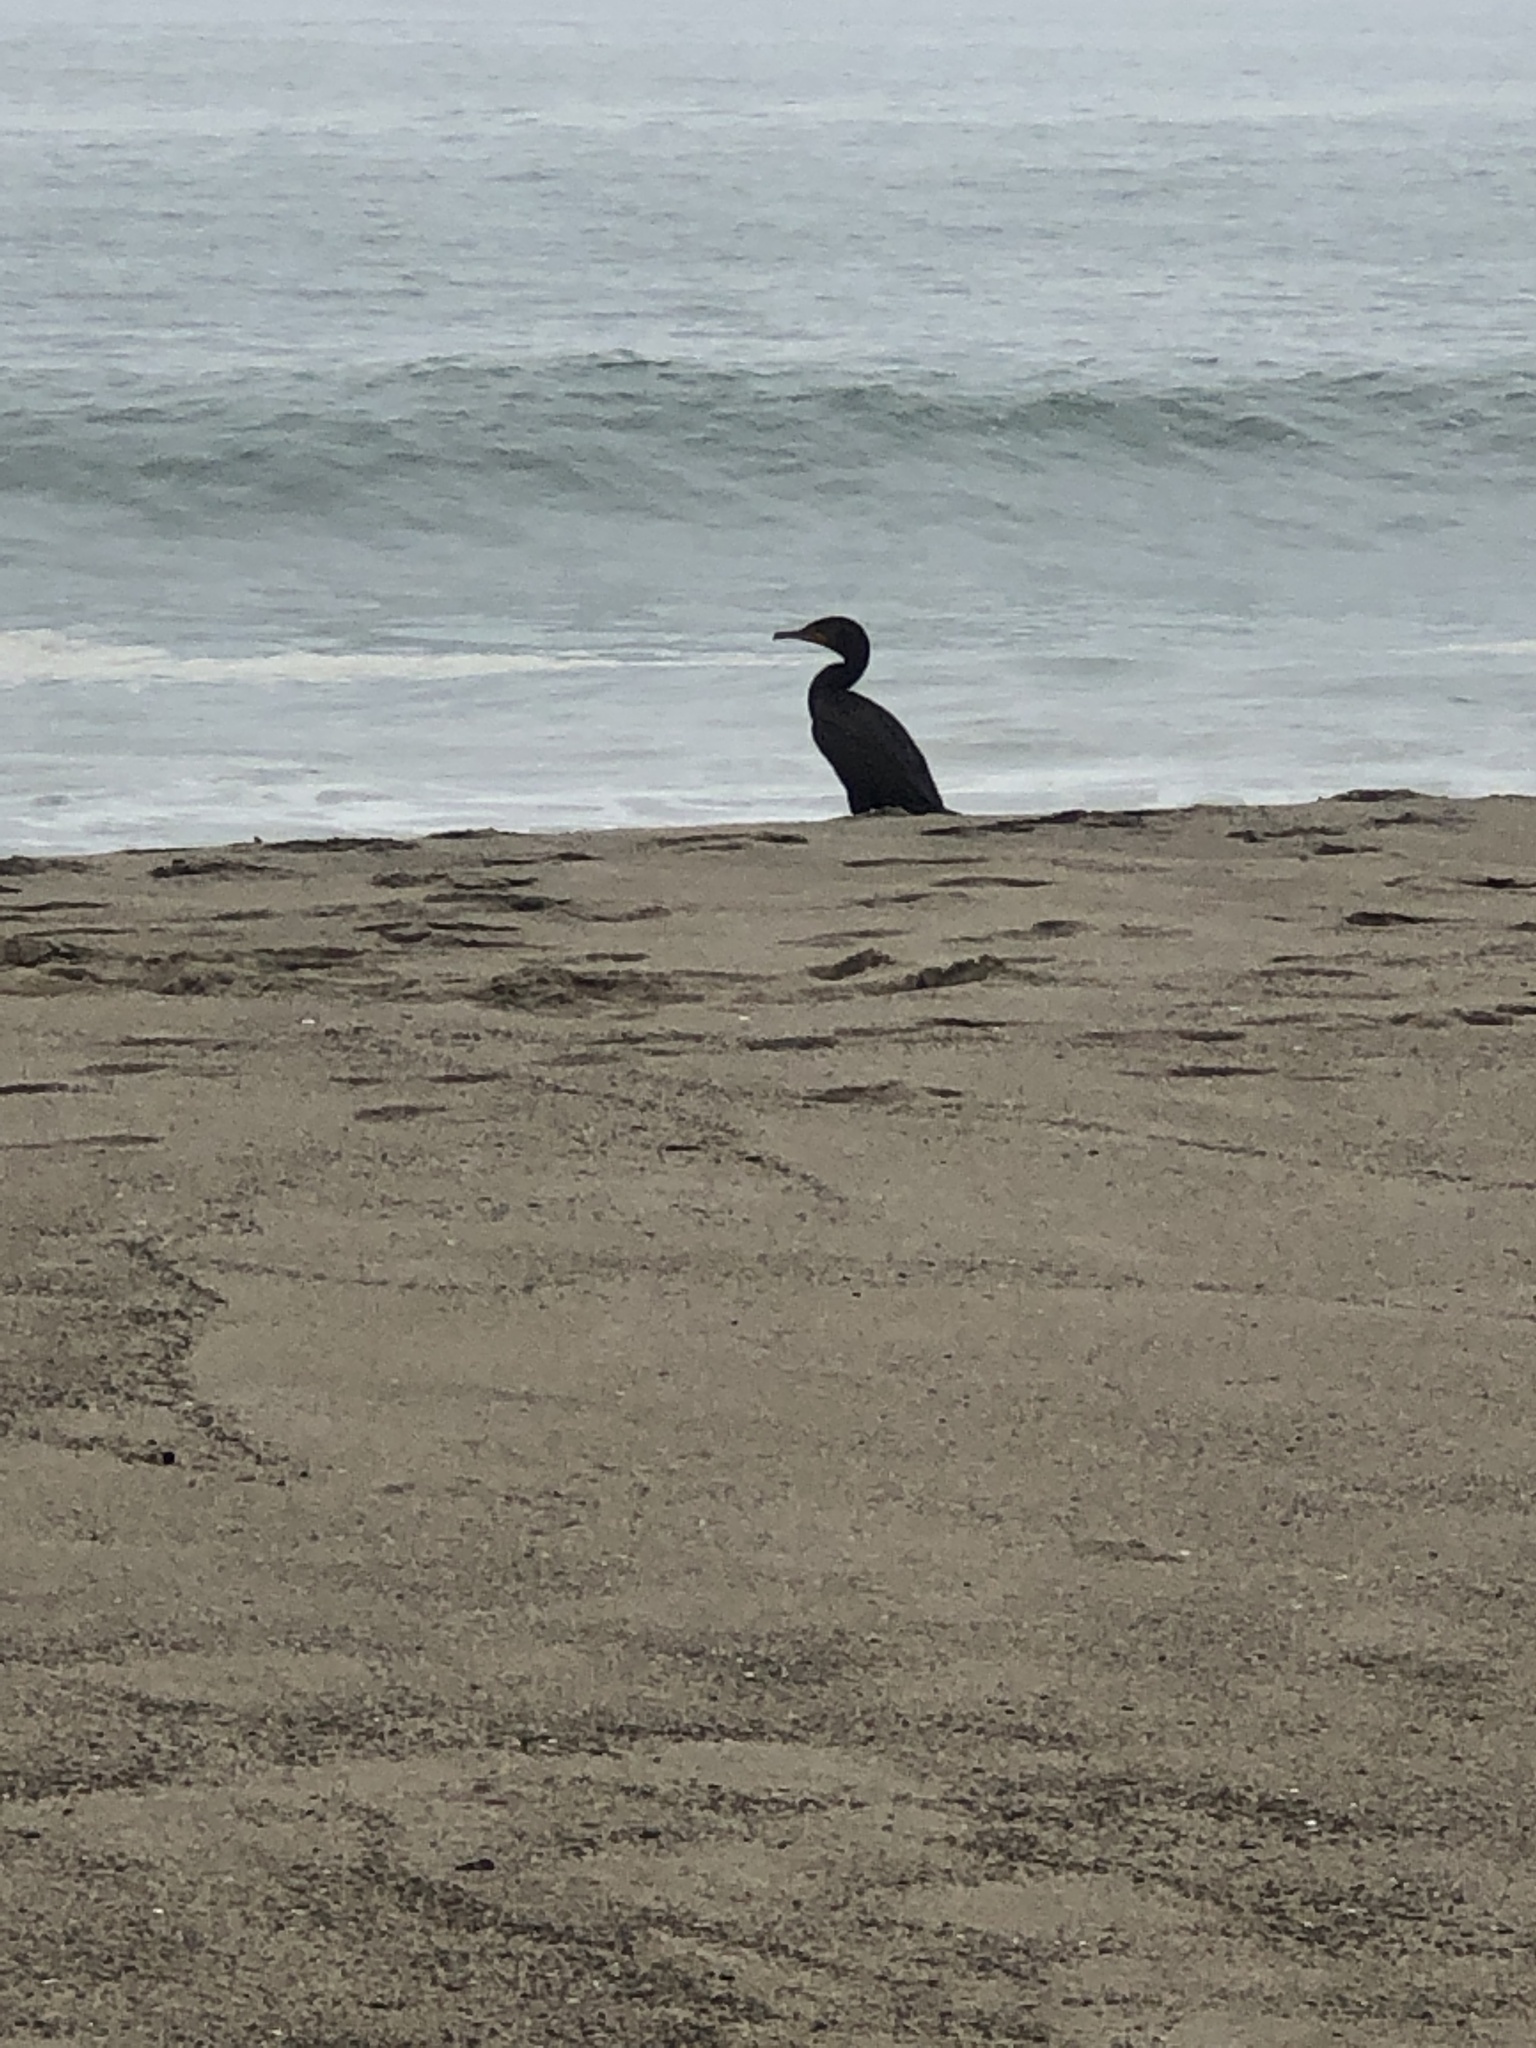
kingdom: Animalia
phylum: Chordata
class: Aves
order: Suliformes
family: Phalacrocoracidae
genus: Urile
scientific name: Urile penicillatus
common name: Brandt's cormorant
